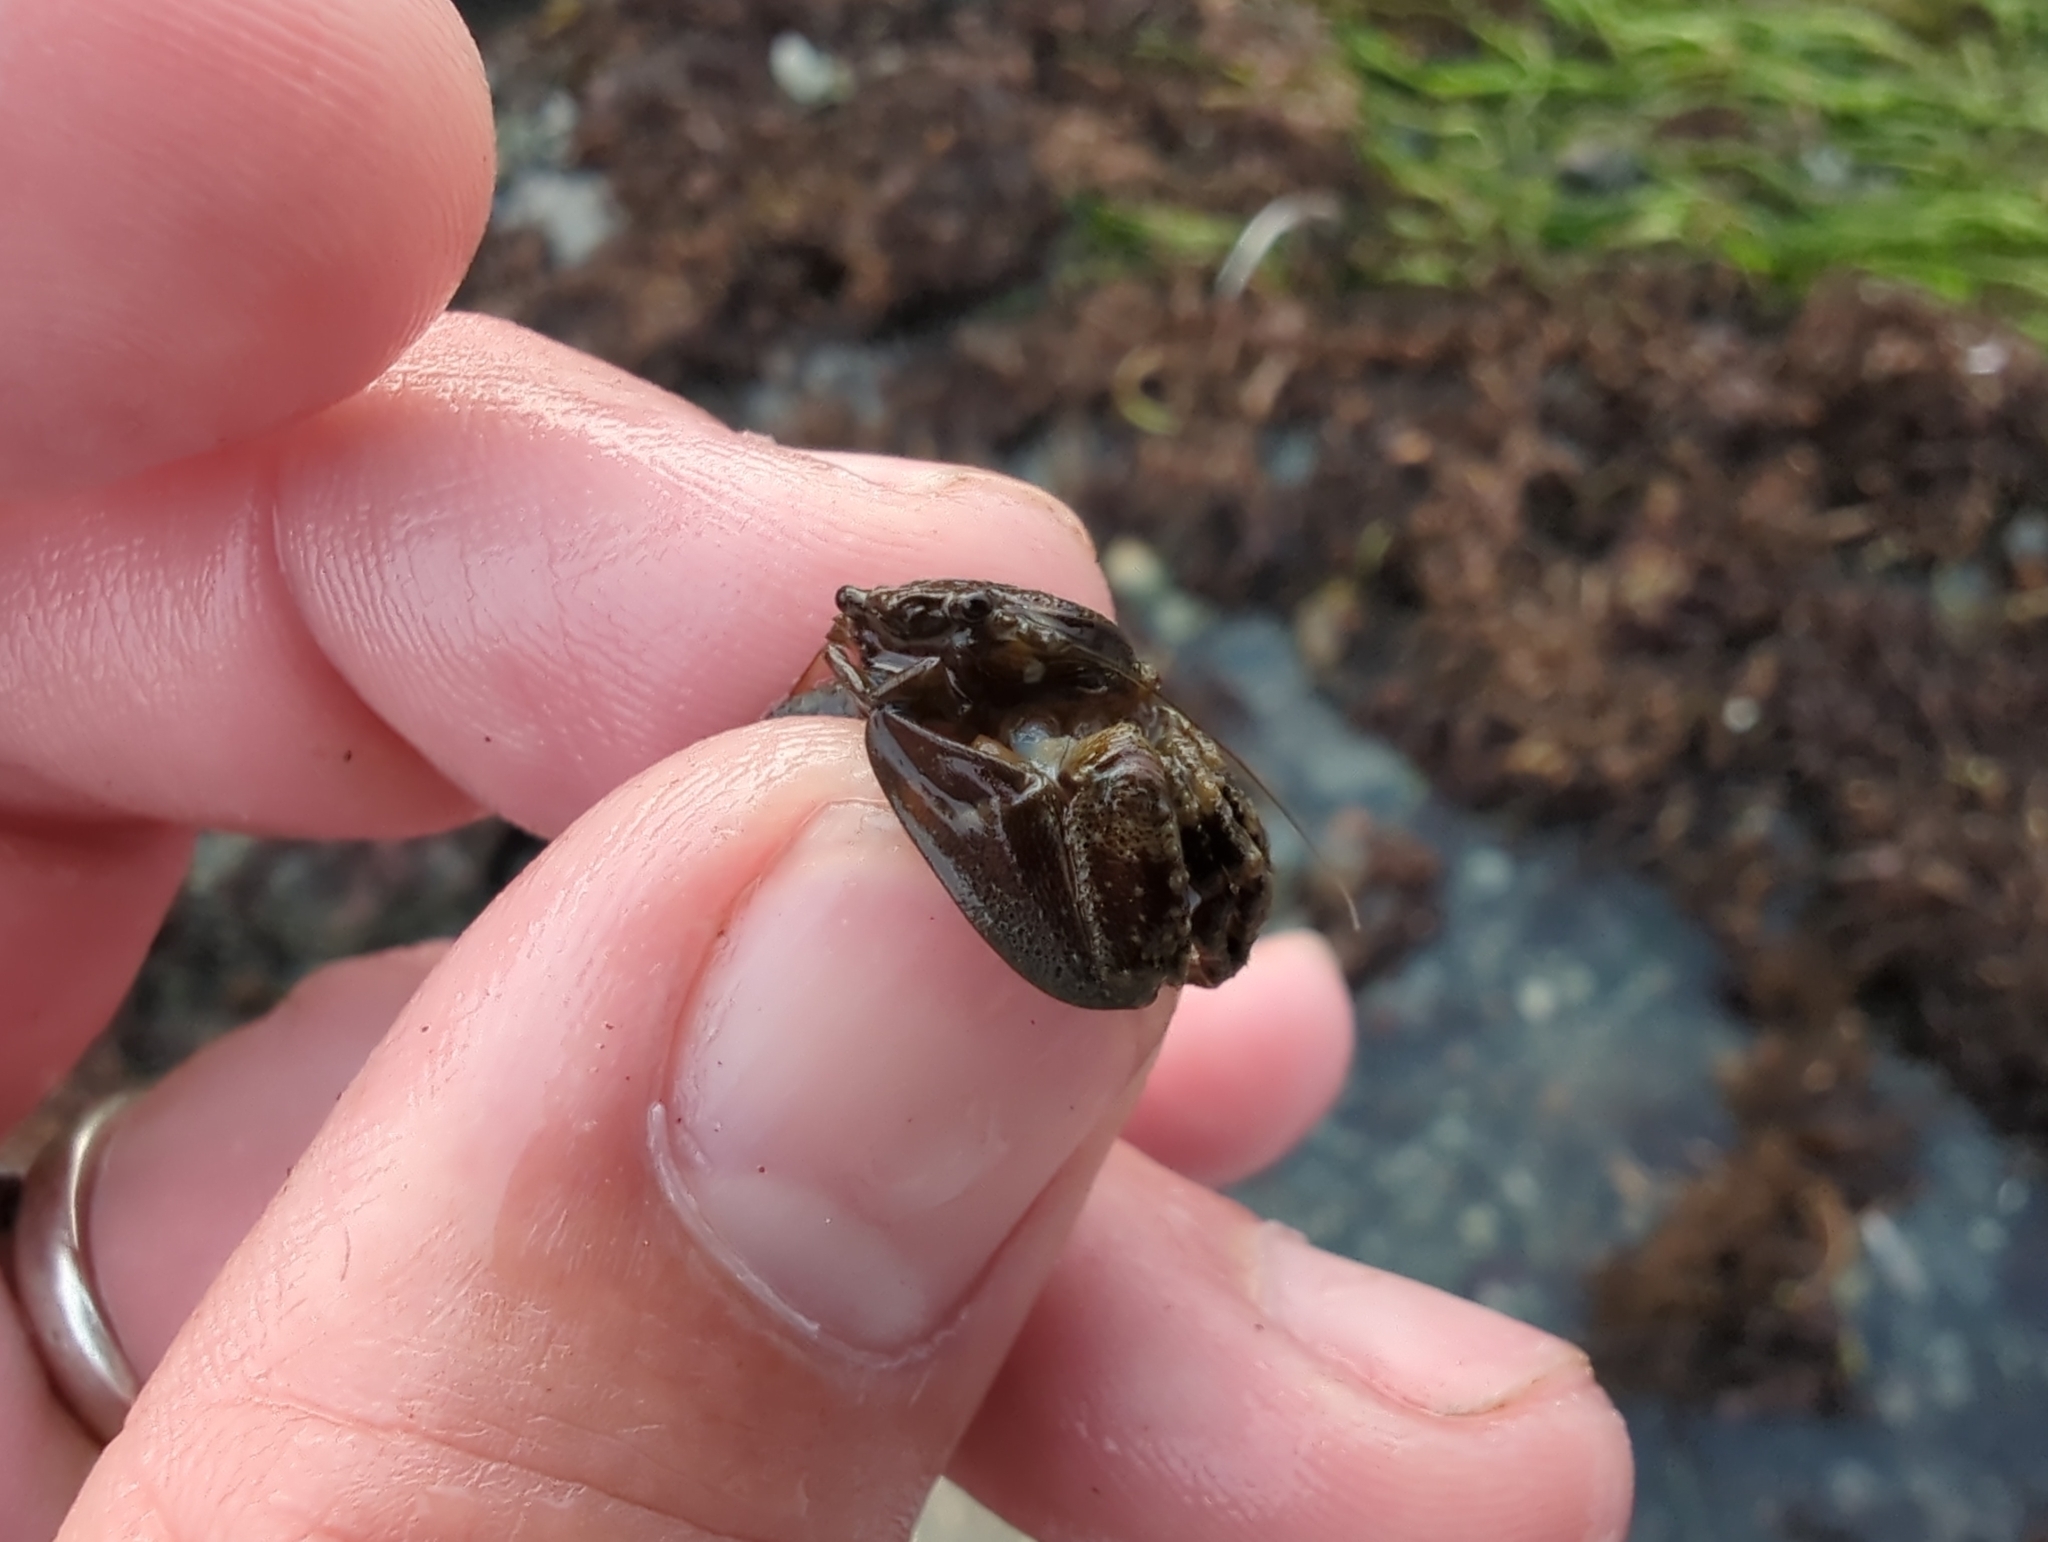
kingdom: Animalia
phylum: Arthropoda
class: Malacostraca
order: Decapoda
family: Porcellanidae
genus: Petrolisthes
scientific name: Petrolisthes eriomerus
